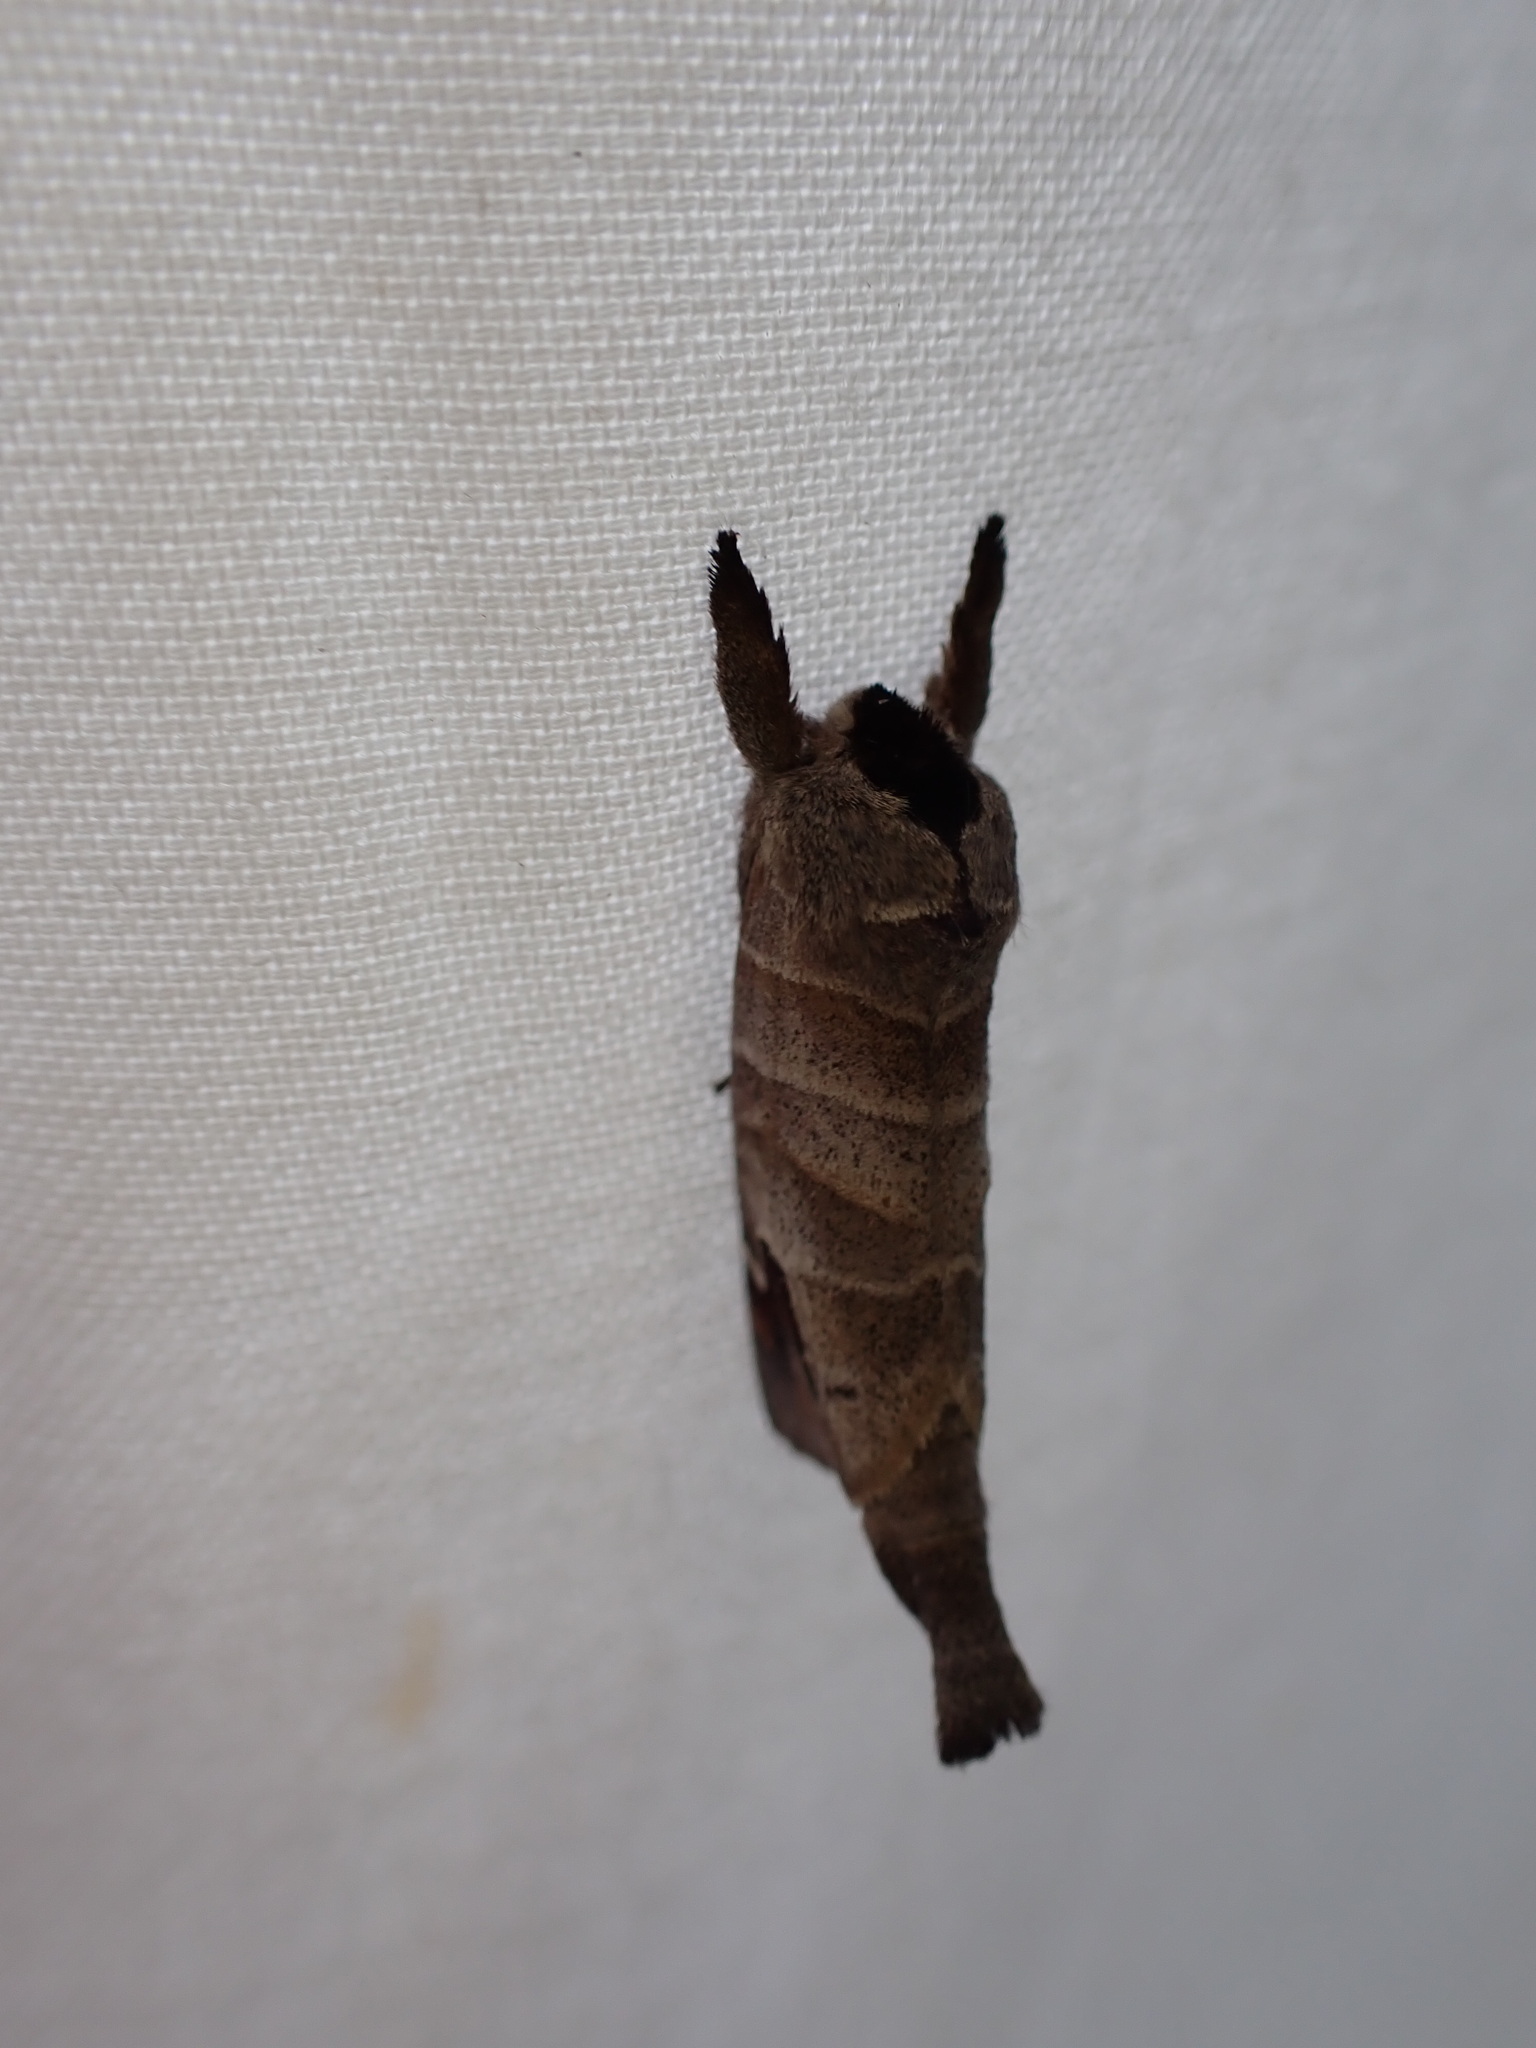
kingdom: Animalia
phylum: Arthropoda
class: Insecta
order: Lepidoptera
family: Notodontidae
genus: Clostera
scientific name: Clostera albosigma
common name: Sigmoid prominent
